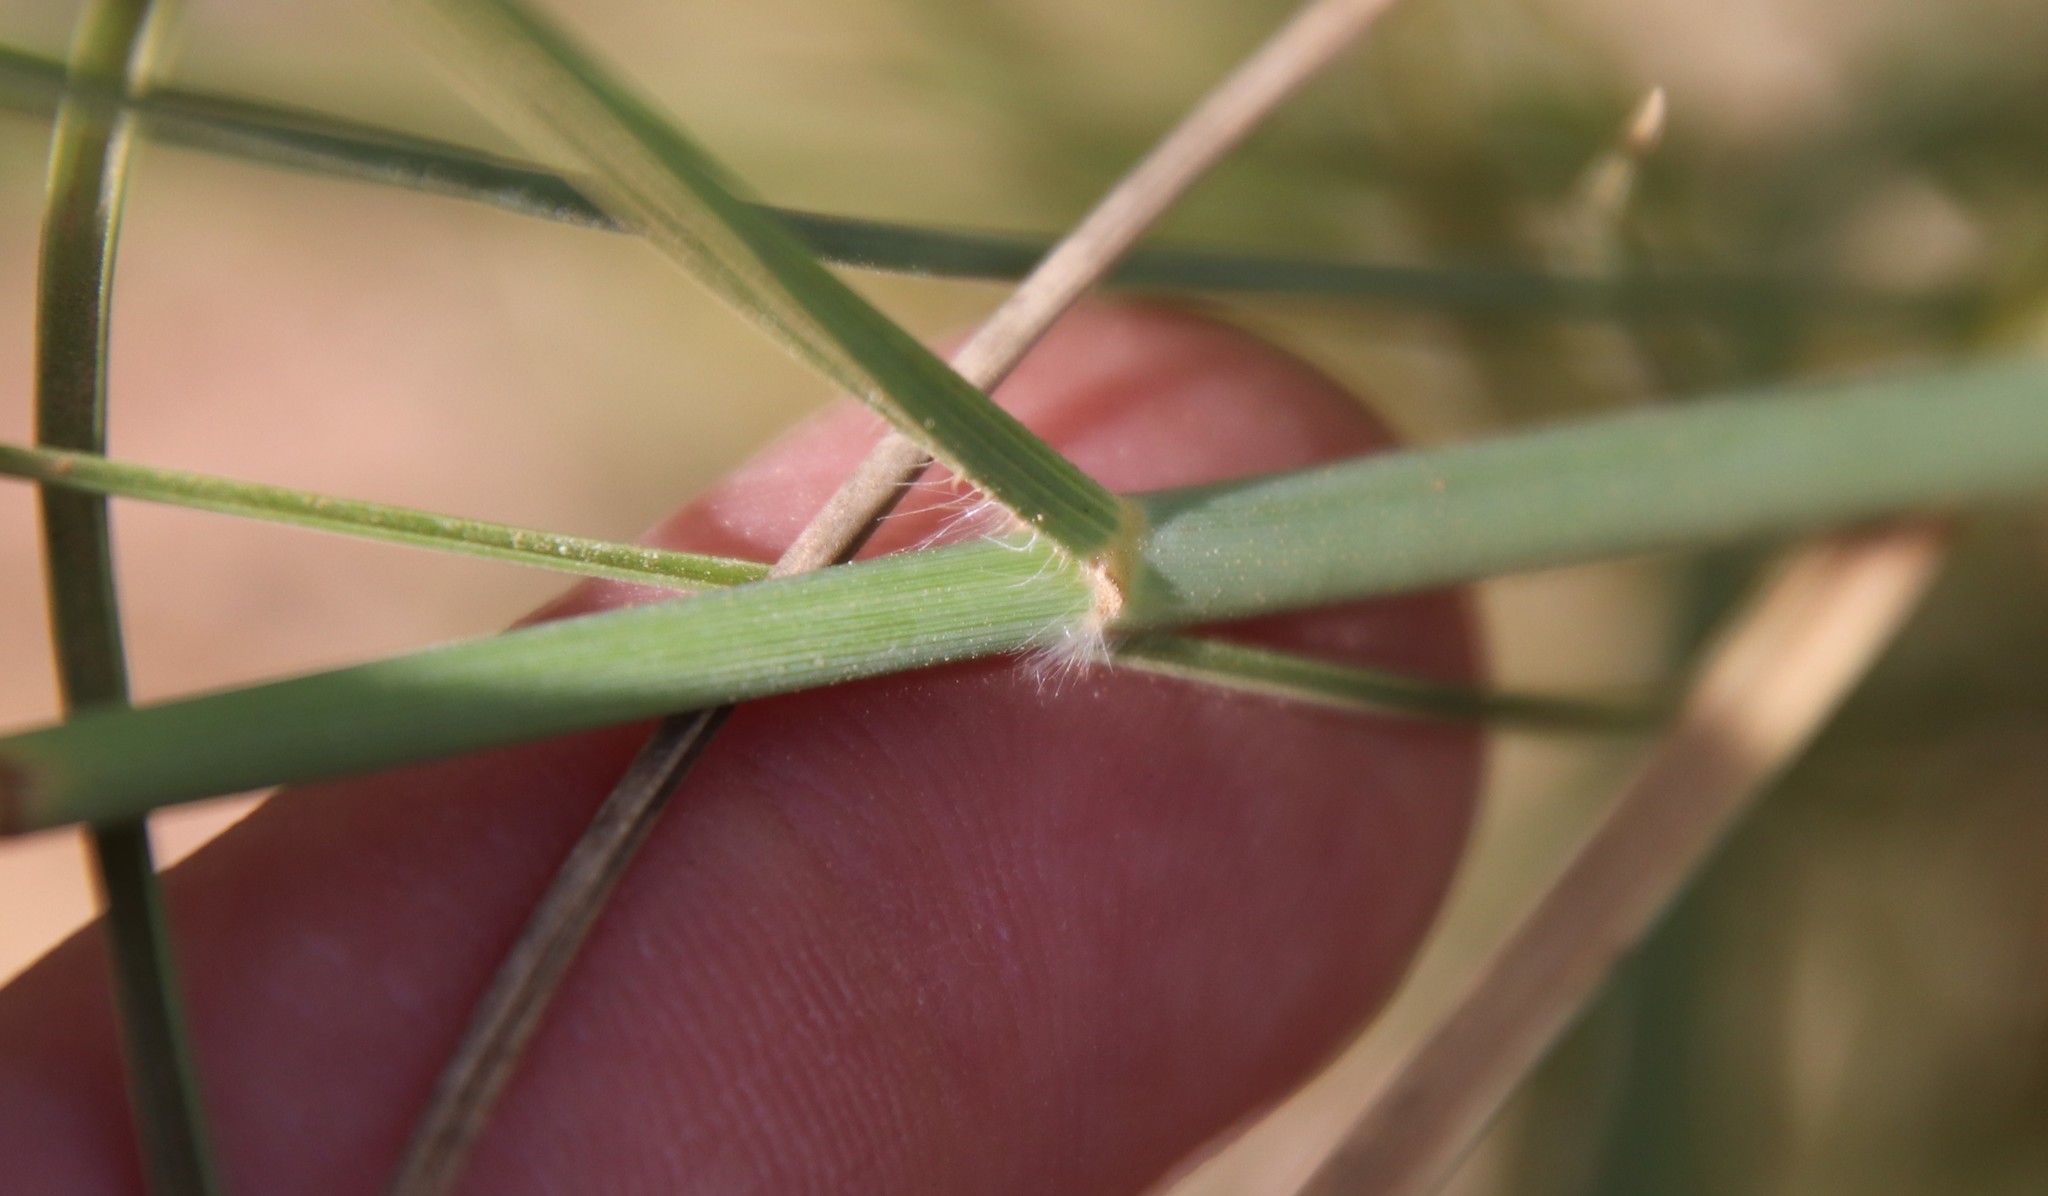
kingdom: Plantae
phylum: Tracheophyta
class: Liliopsida
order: Poales
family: Poaceae
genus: Cenchrus
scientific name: Cenchrus setaceus
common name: Crimson fountaingrass
